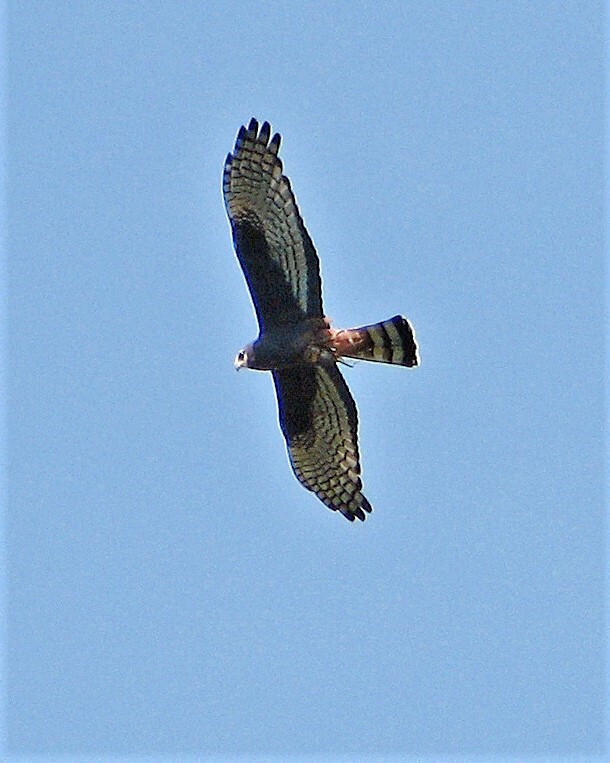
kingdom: Animalia
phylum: Chordata
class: Aves
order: Accipitriformes
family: Accipitridae
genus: Circus
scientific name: Circus buffoni
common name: Long-winged harrier
